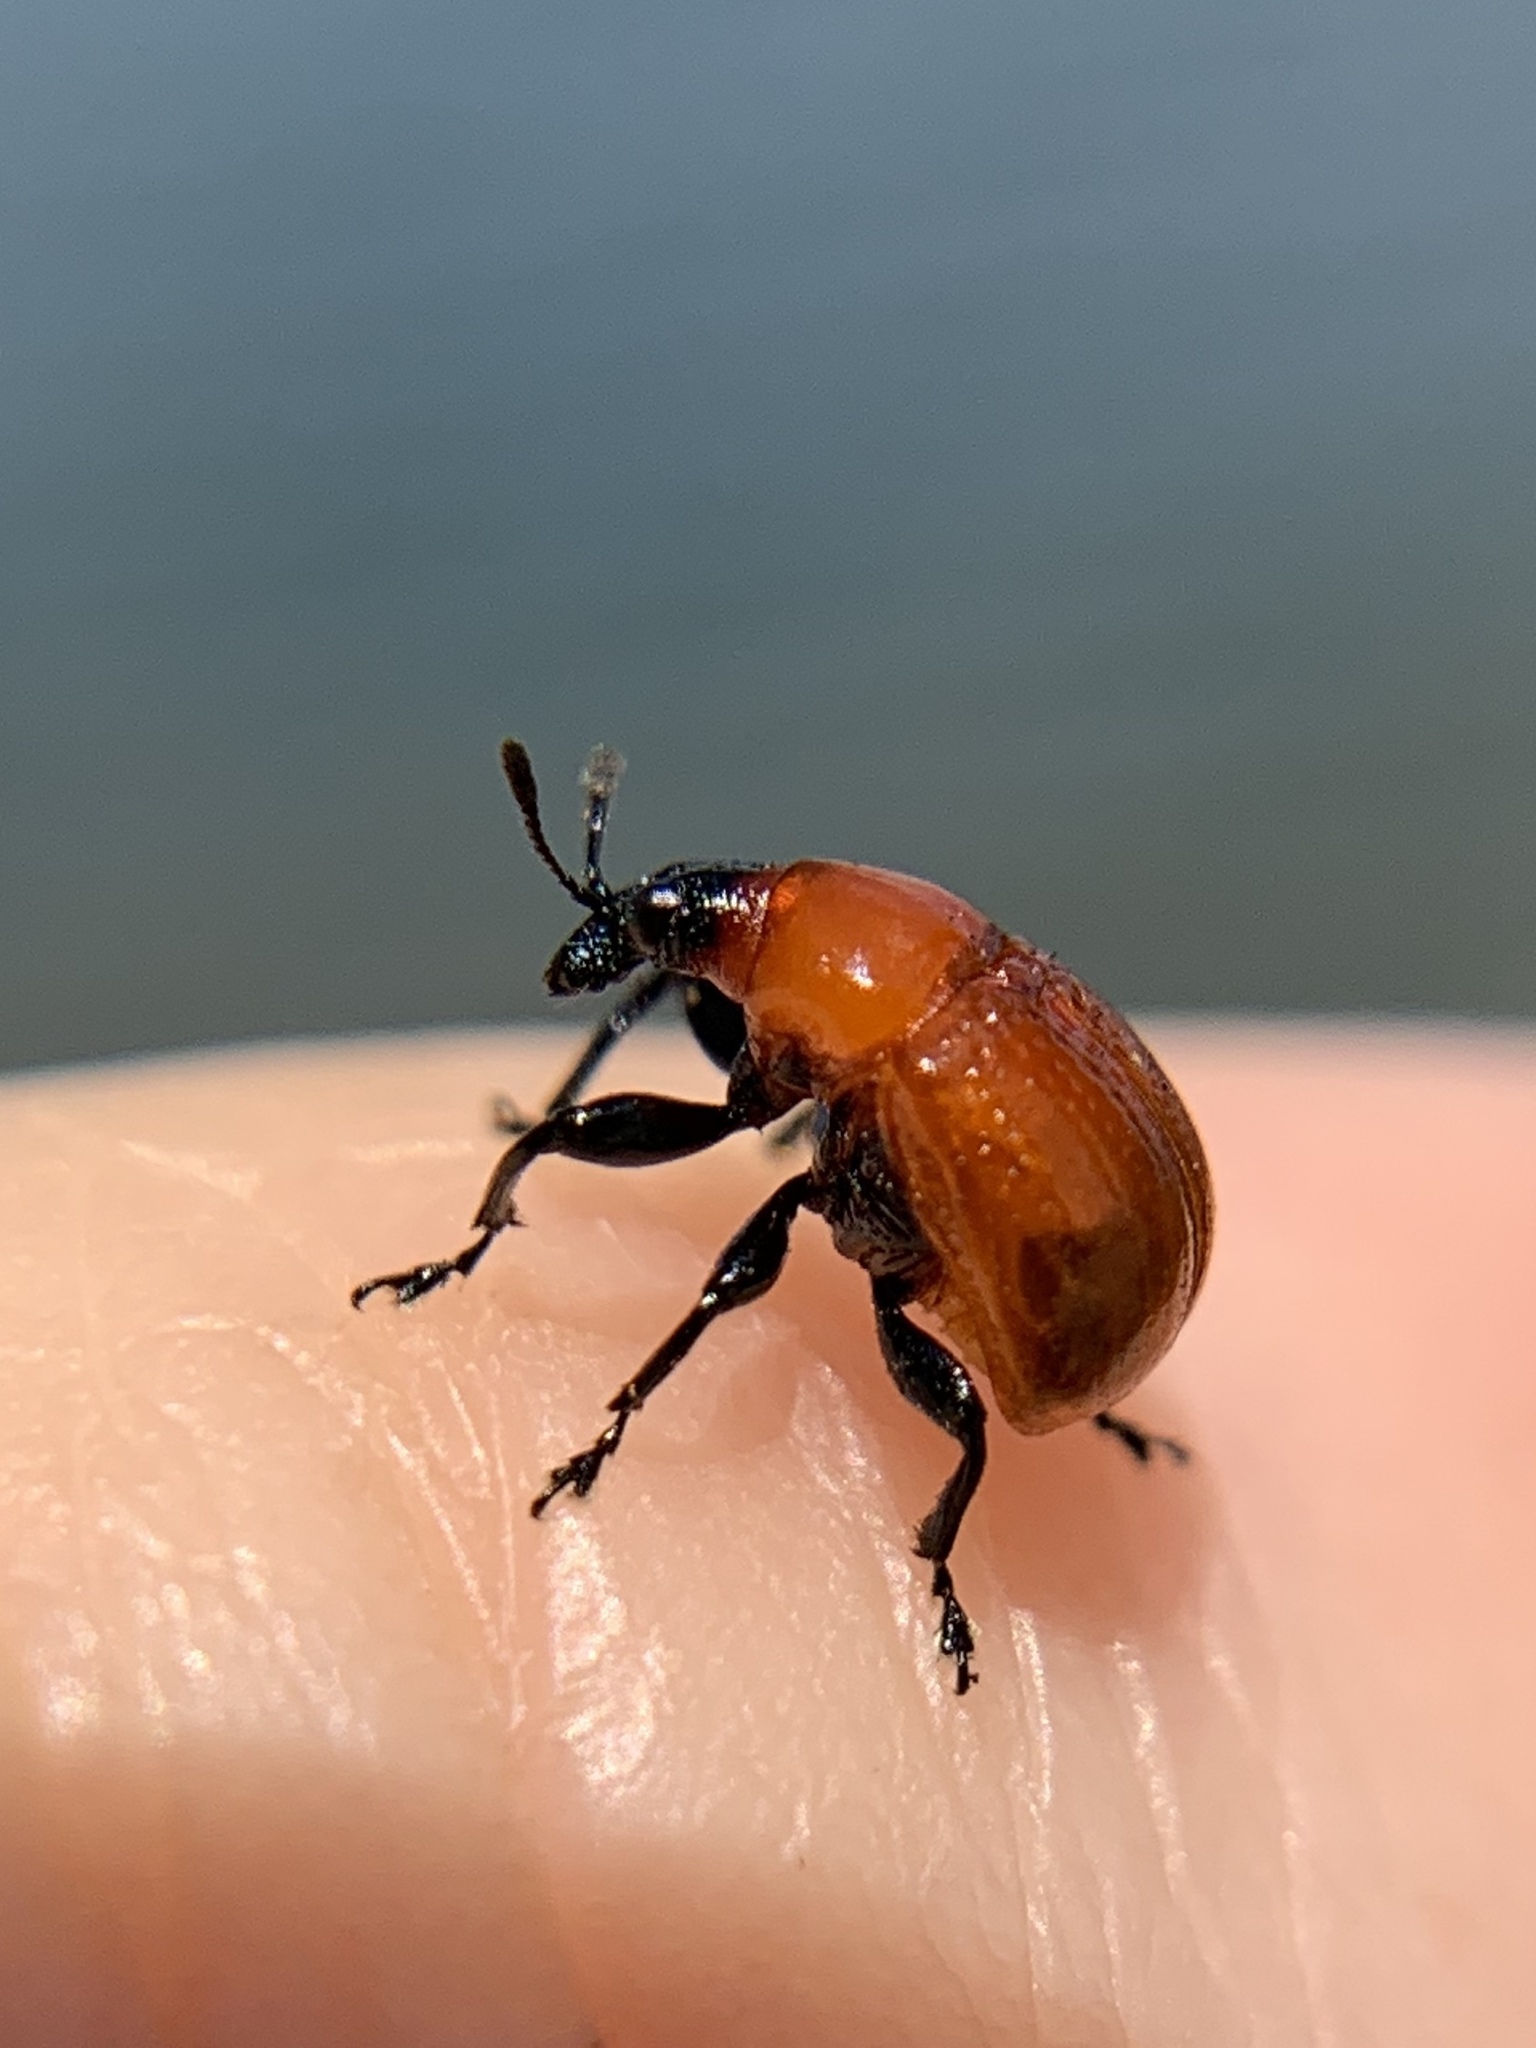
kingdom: Animalia
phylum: Arthropoda
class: Insecta
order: Coleoptera
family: Attelabidae
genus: Homoeolabus
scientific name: Homoeolabus analis
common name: Oak leaf rolling weevil
